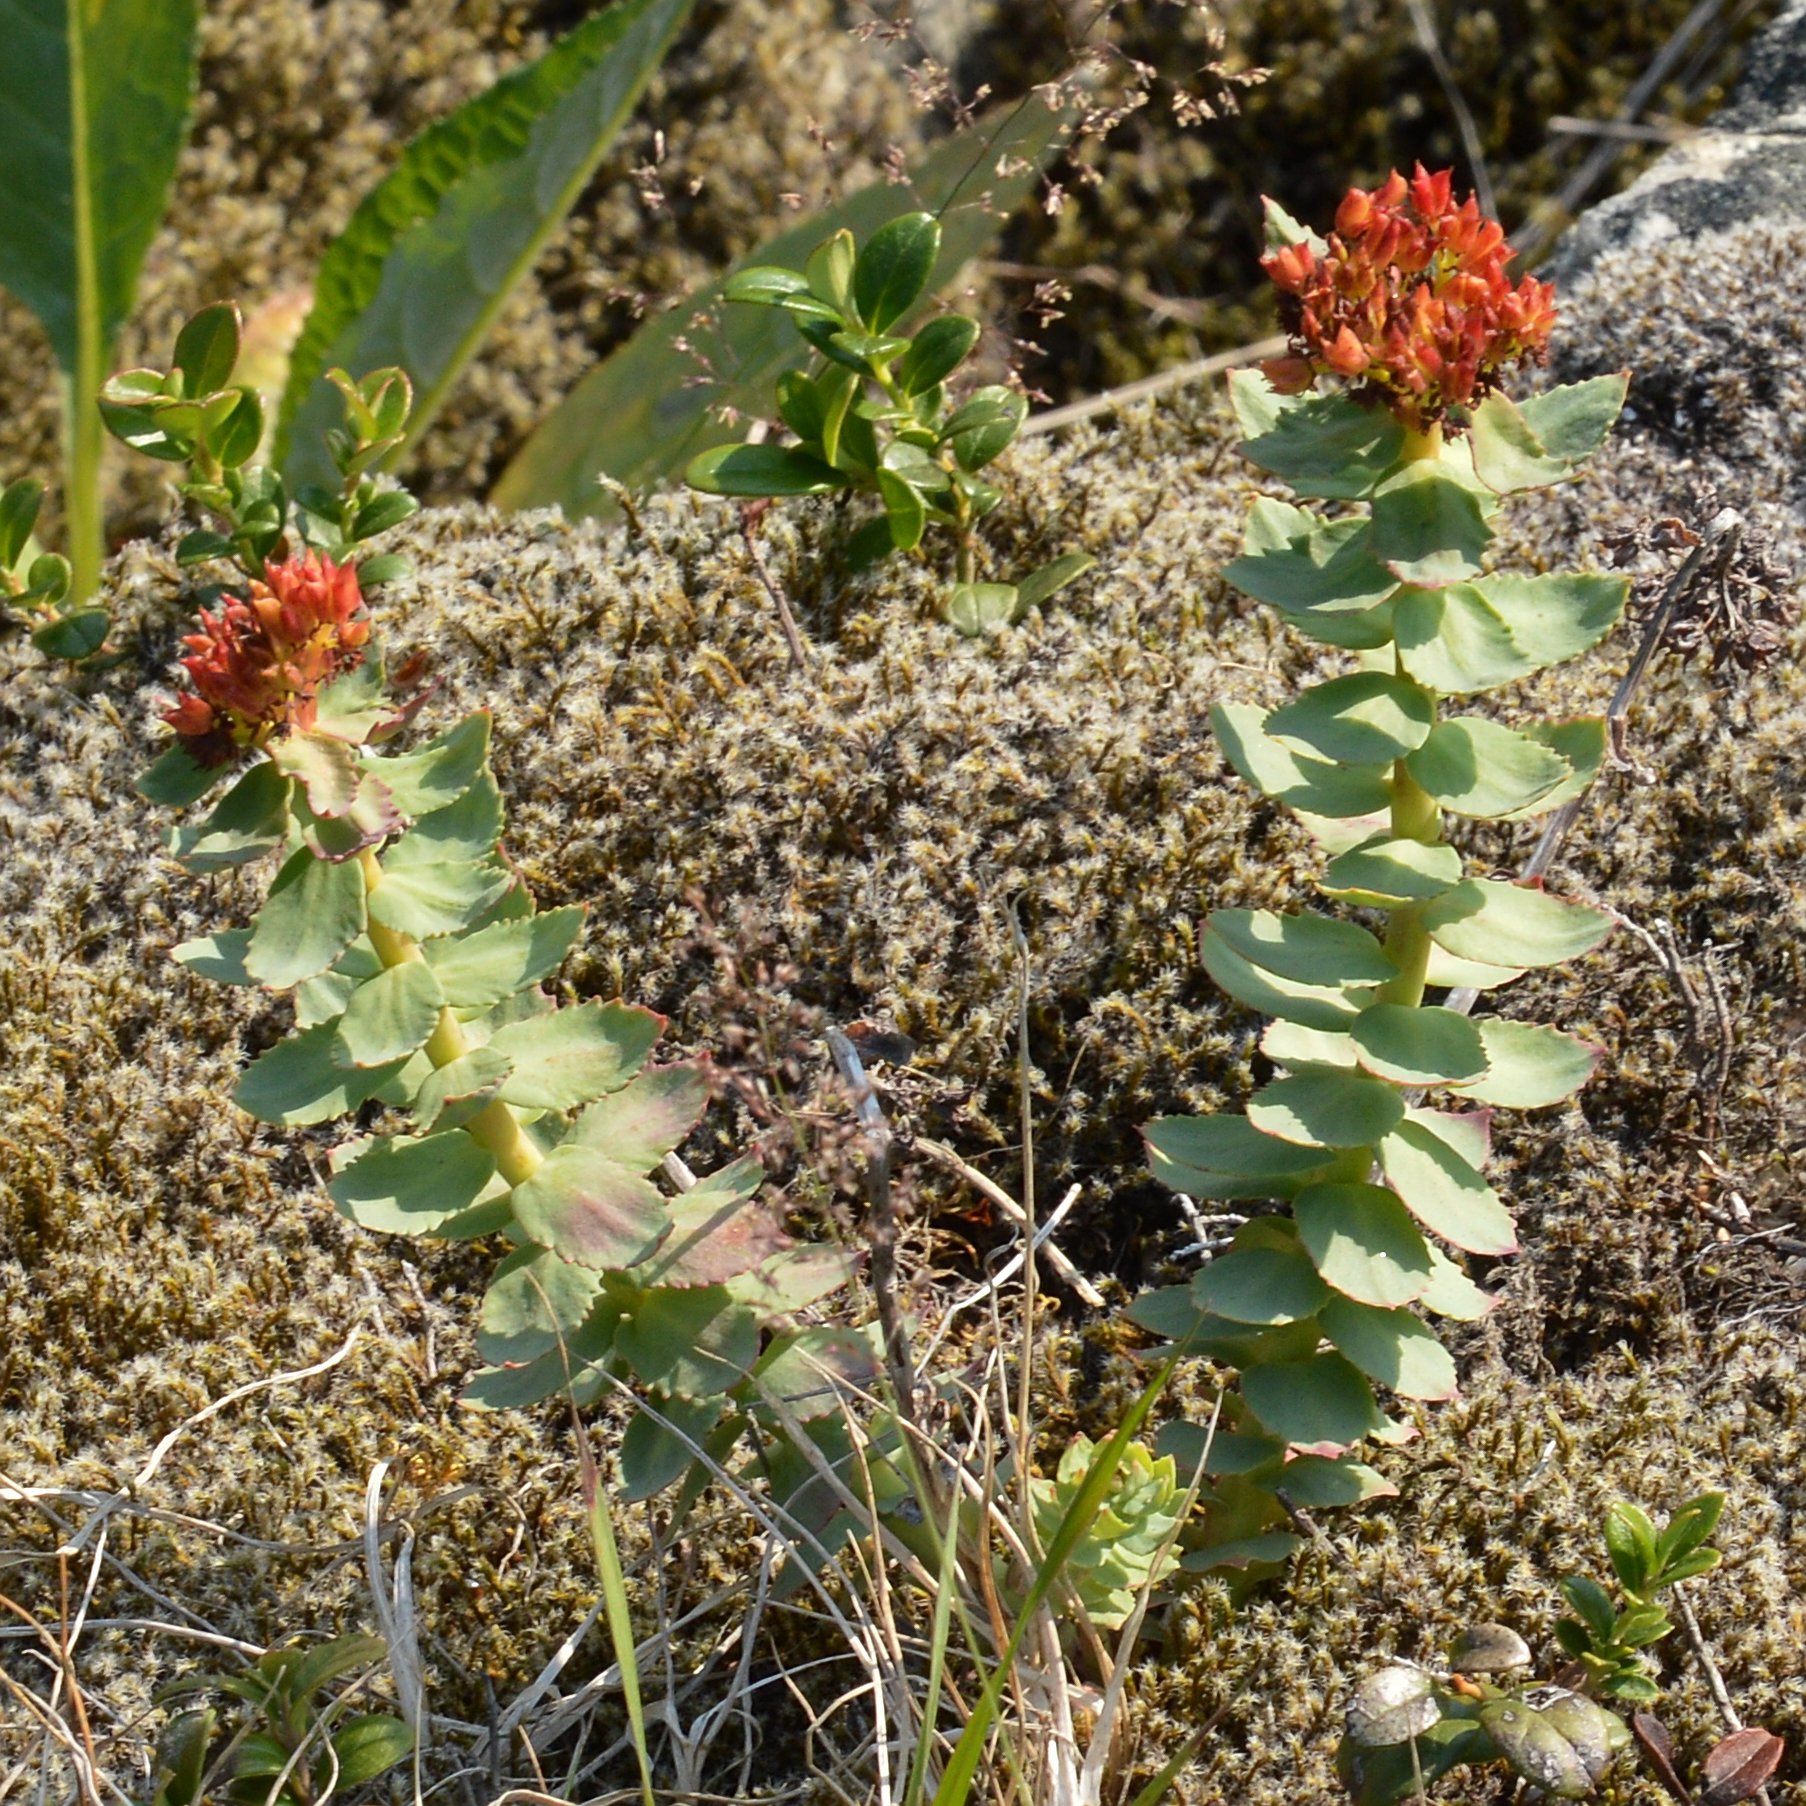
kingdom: Plantae
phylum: Tracheophyta
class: Magnoliopsida
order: Saxifragales
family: Crassulaceae
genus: Rhodiola
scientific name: Rhodiola rosea
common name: Roseroot
